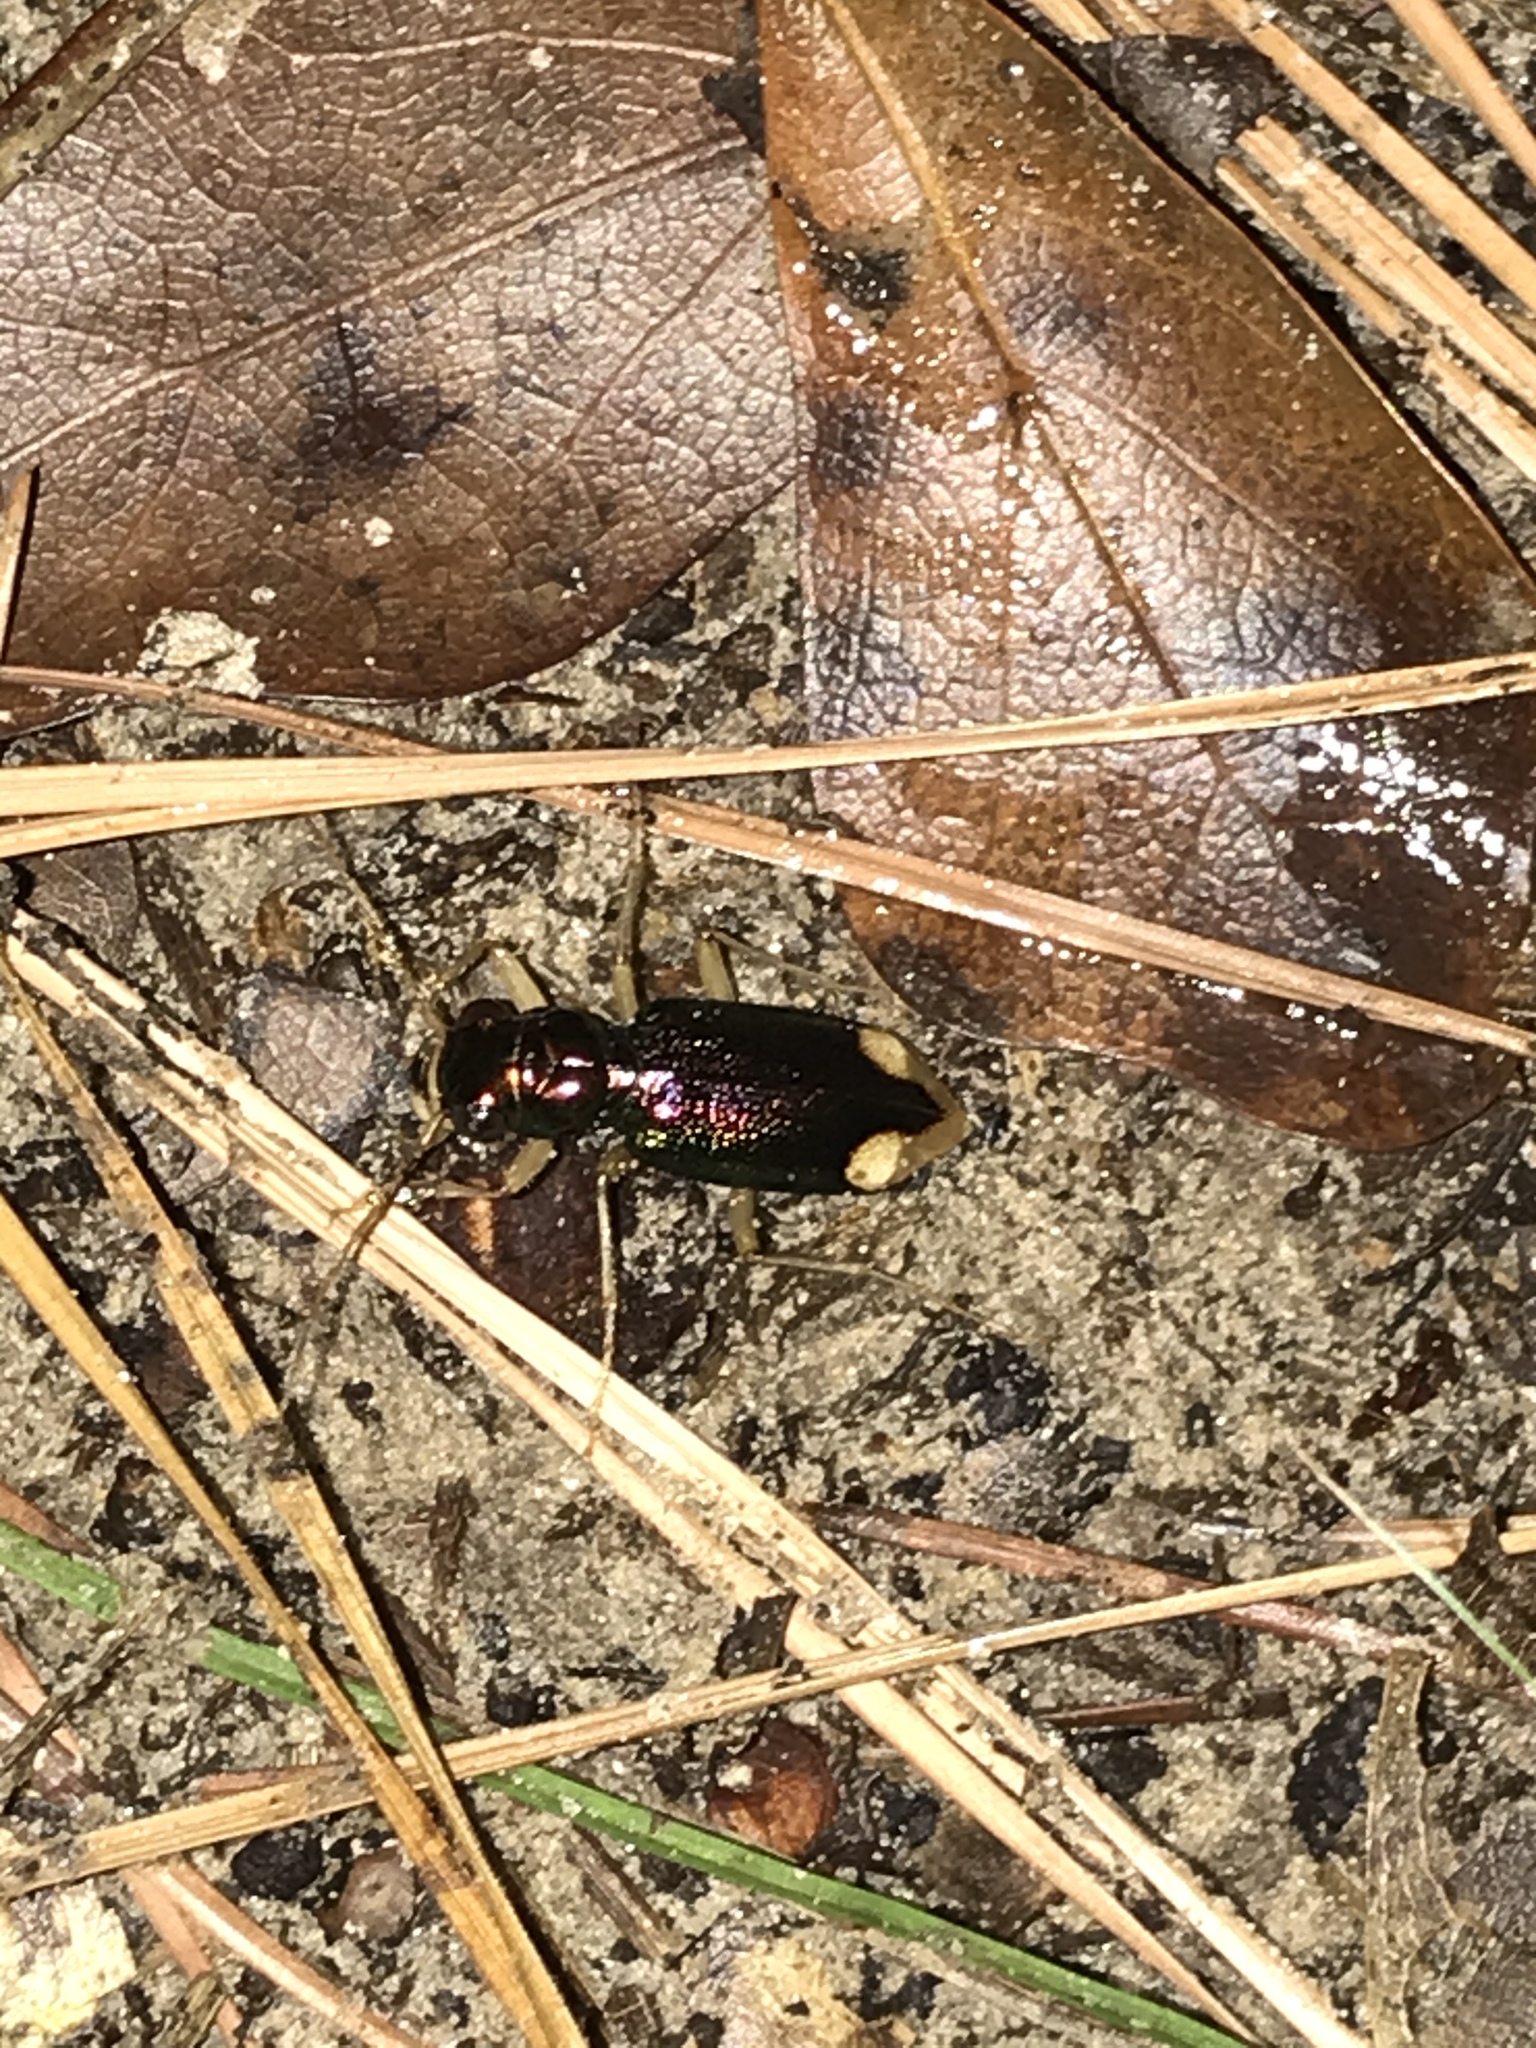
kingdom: Animalia
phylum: Arthropoda
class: Insecta
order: Coleoptera
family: Carabidae
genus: Tetracha
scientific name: Tetracha carolina
